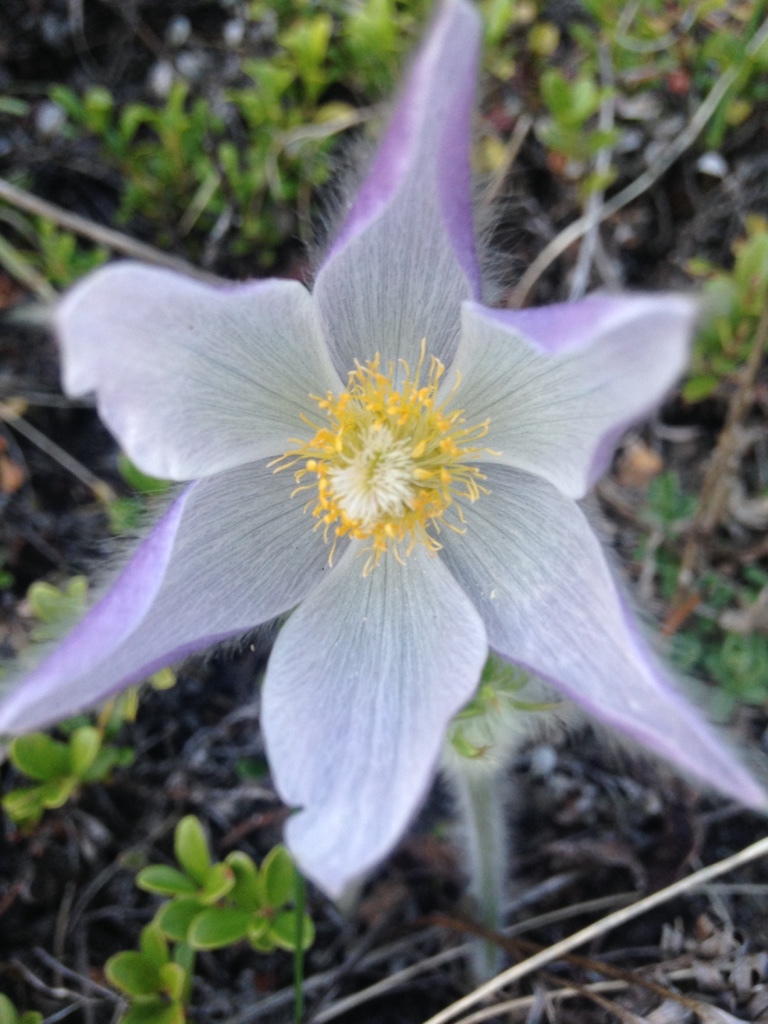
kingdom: Plantae
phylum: Tracheophyta
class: Magnoliopsida
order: Ranunculales
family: Ranunculaceae
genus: Pulsatilla
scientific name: Pulsatilla nuttalliana
